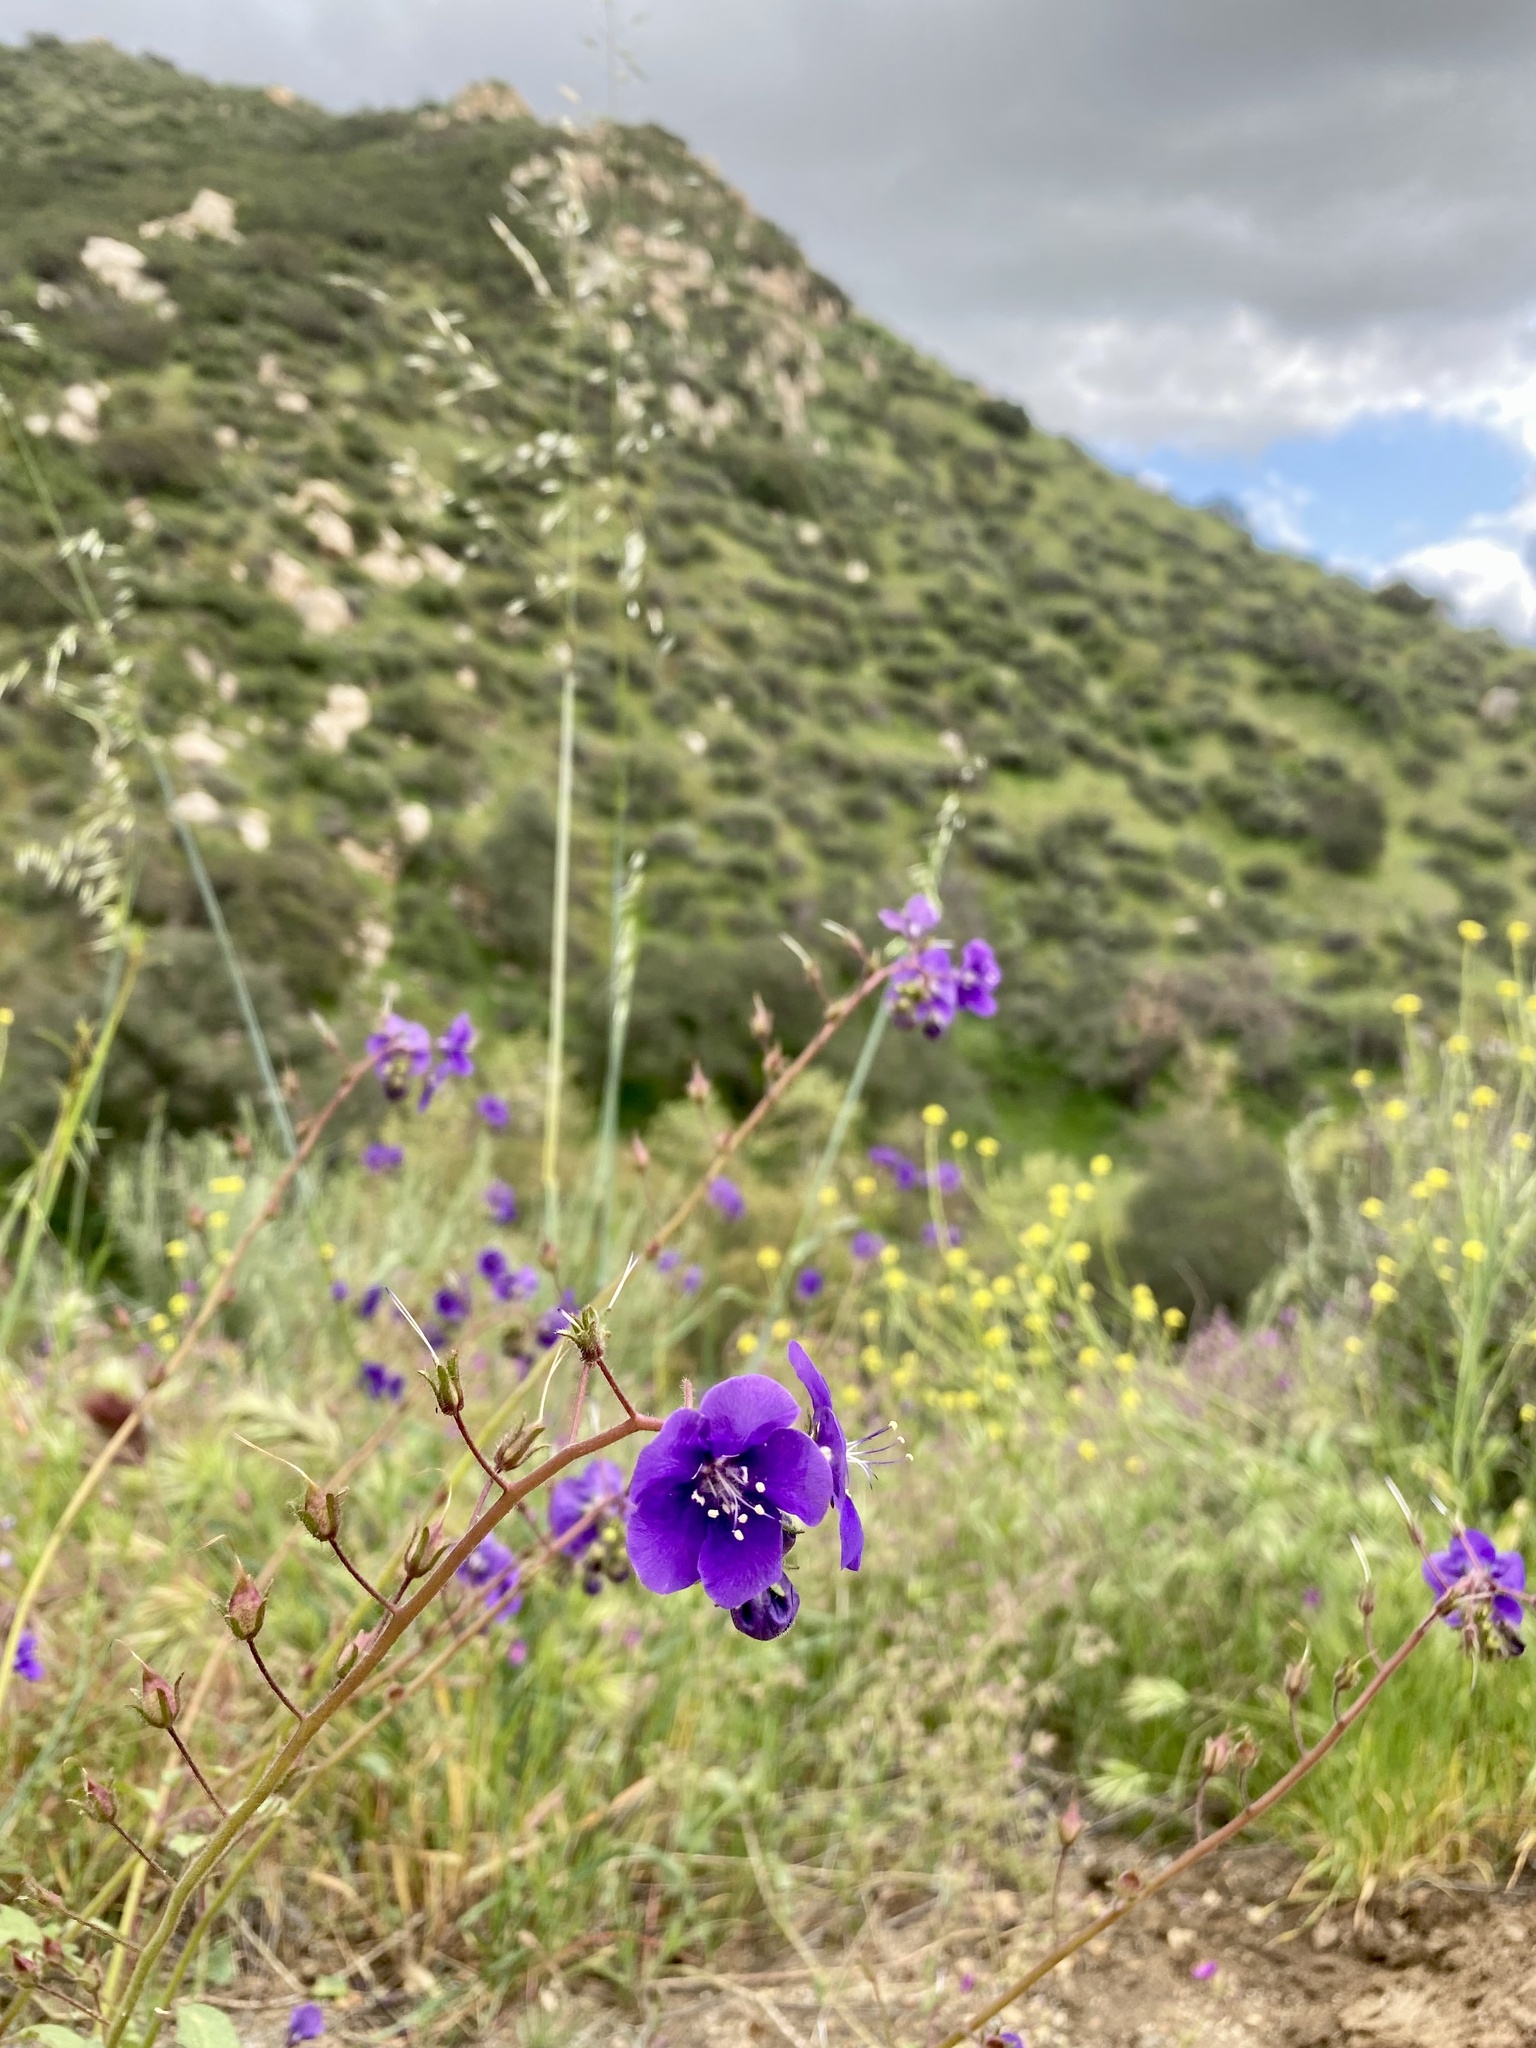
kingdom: Plantae
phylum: Tracheophyta
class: Magnoliopsida
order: Boraginales
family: Hydrophyllaceae
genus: Phacelia
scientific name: Phacelia parryi
